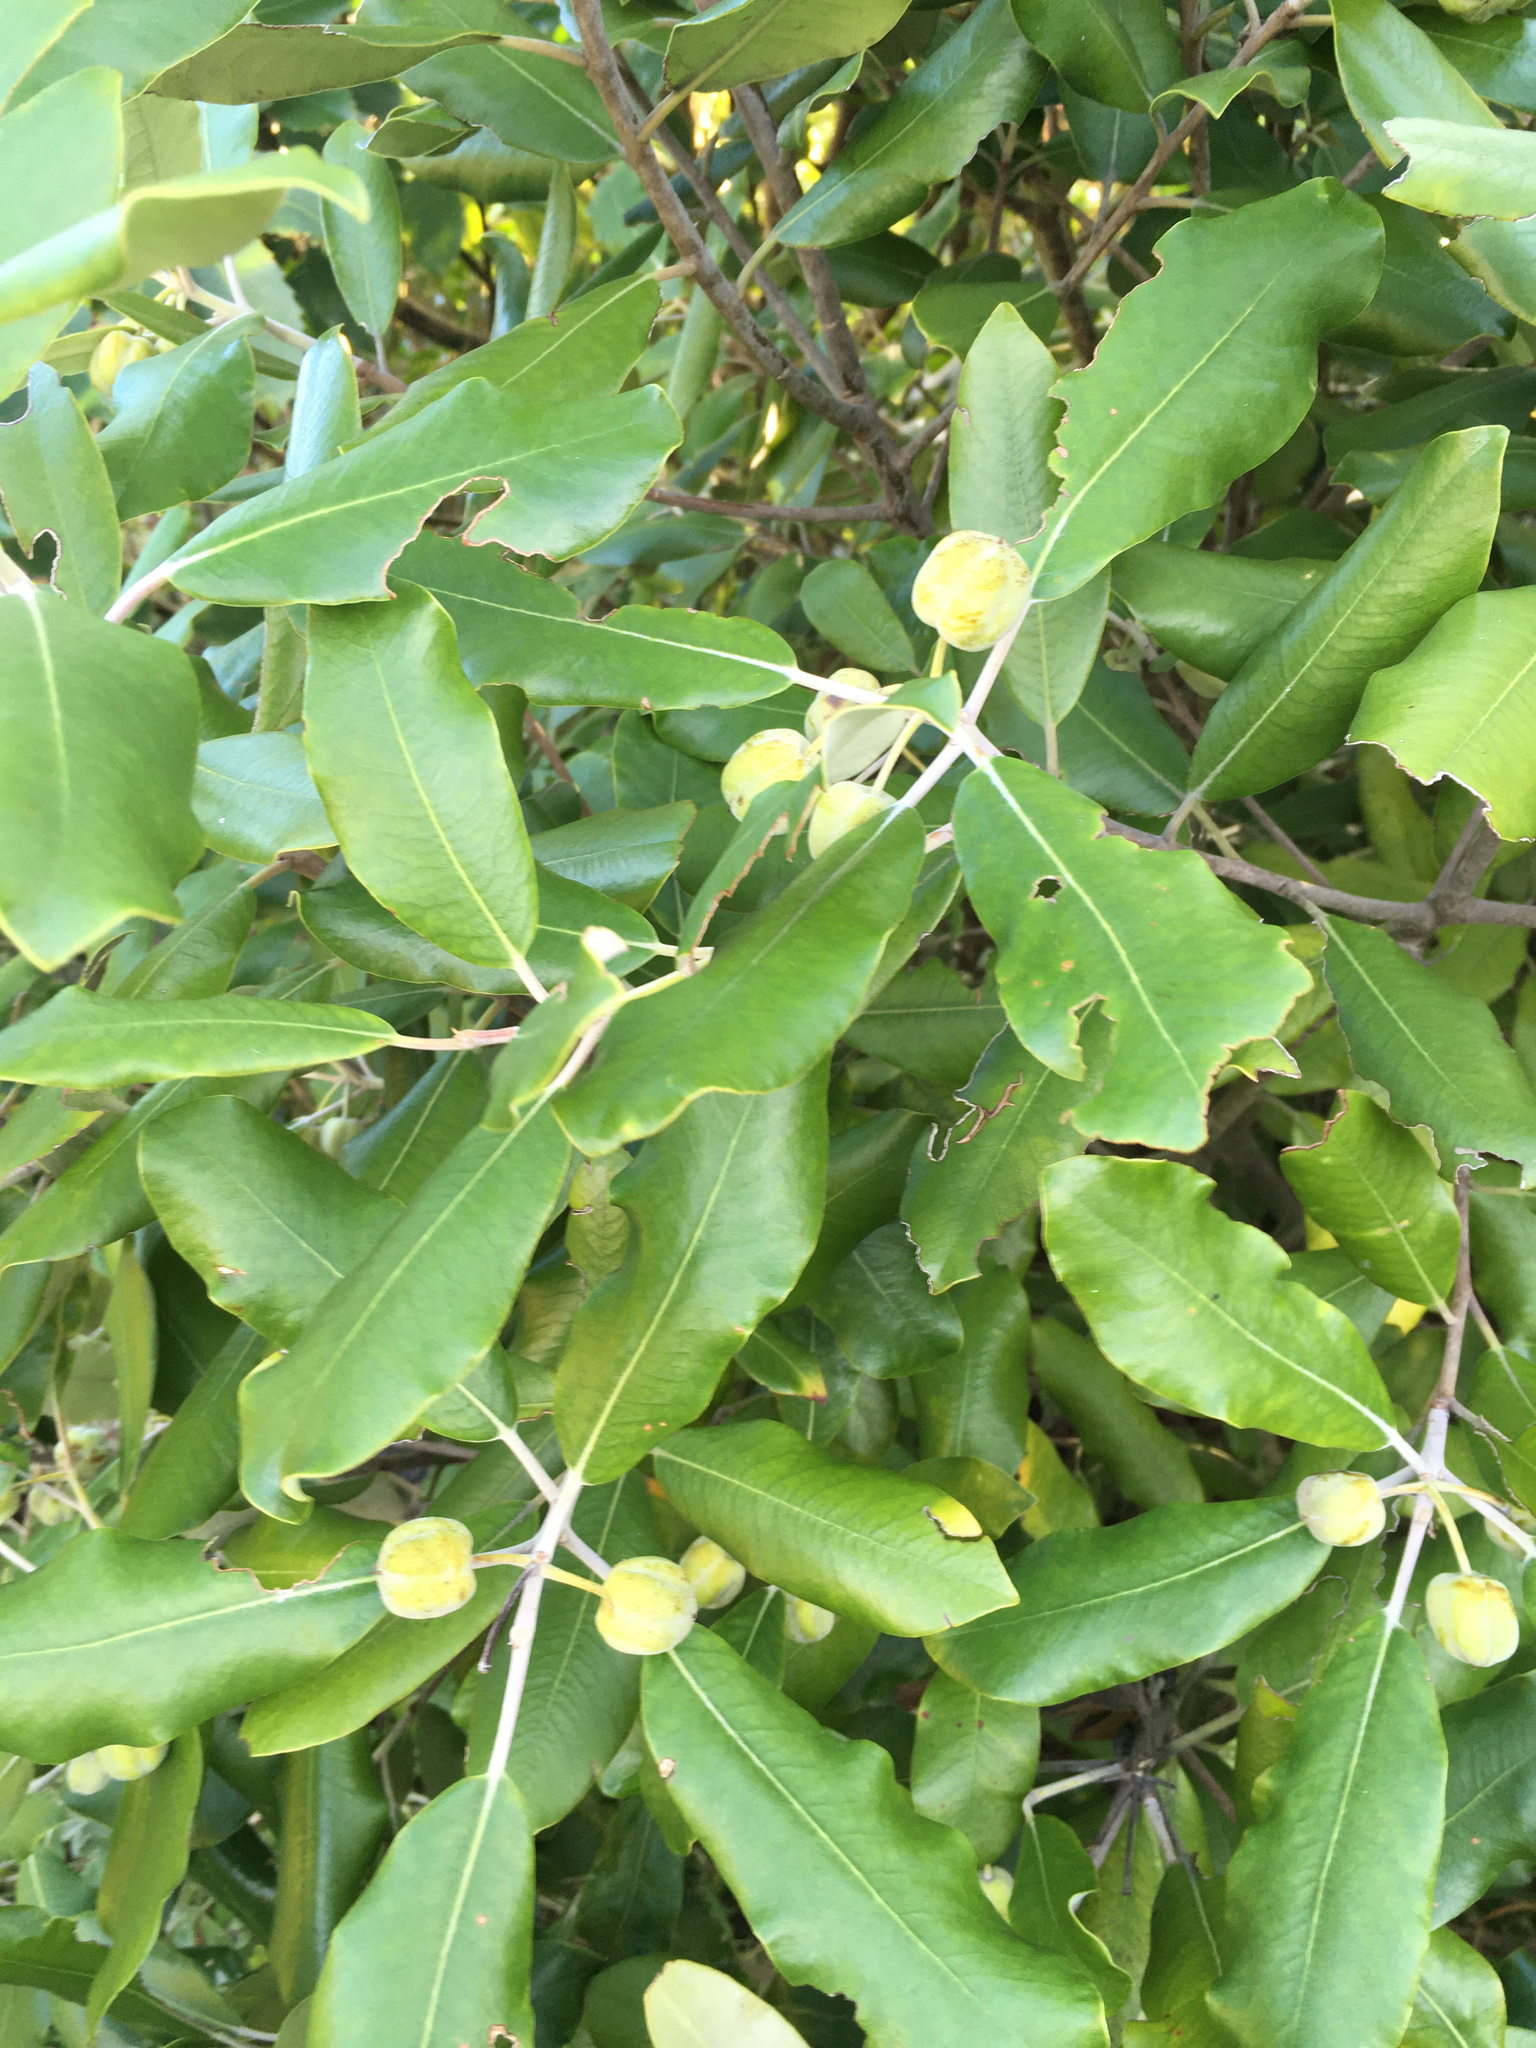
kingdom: Plantae
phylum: Tracheophyta
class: Magnoliopsida
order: Apiales
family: Pittosporaceae
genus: Pittosporum
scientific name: Pittosporum ralphii
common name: Ralph's desertwillow
